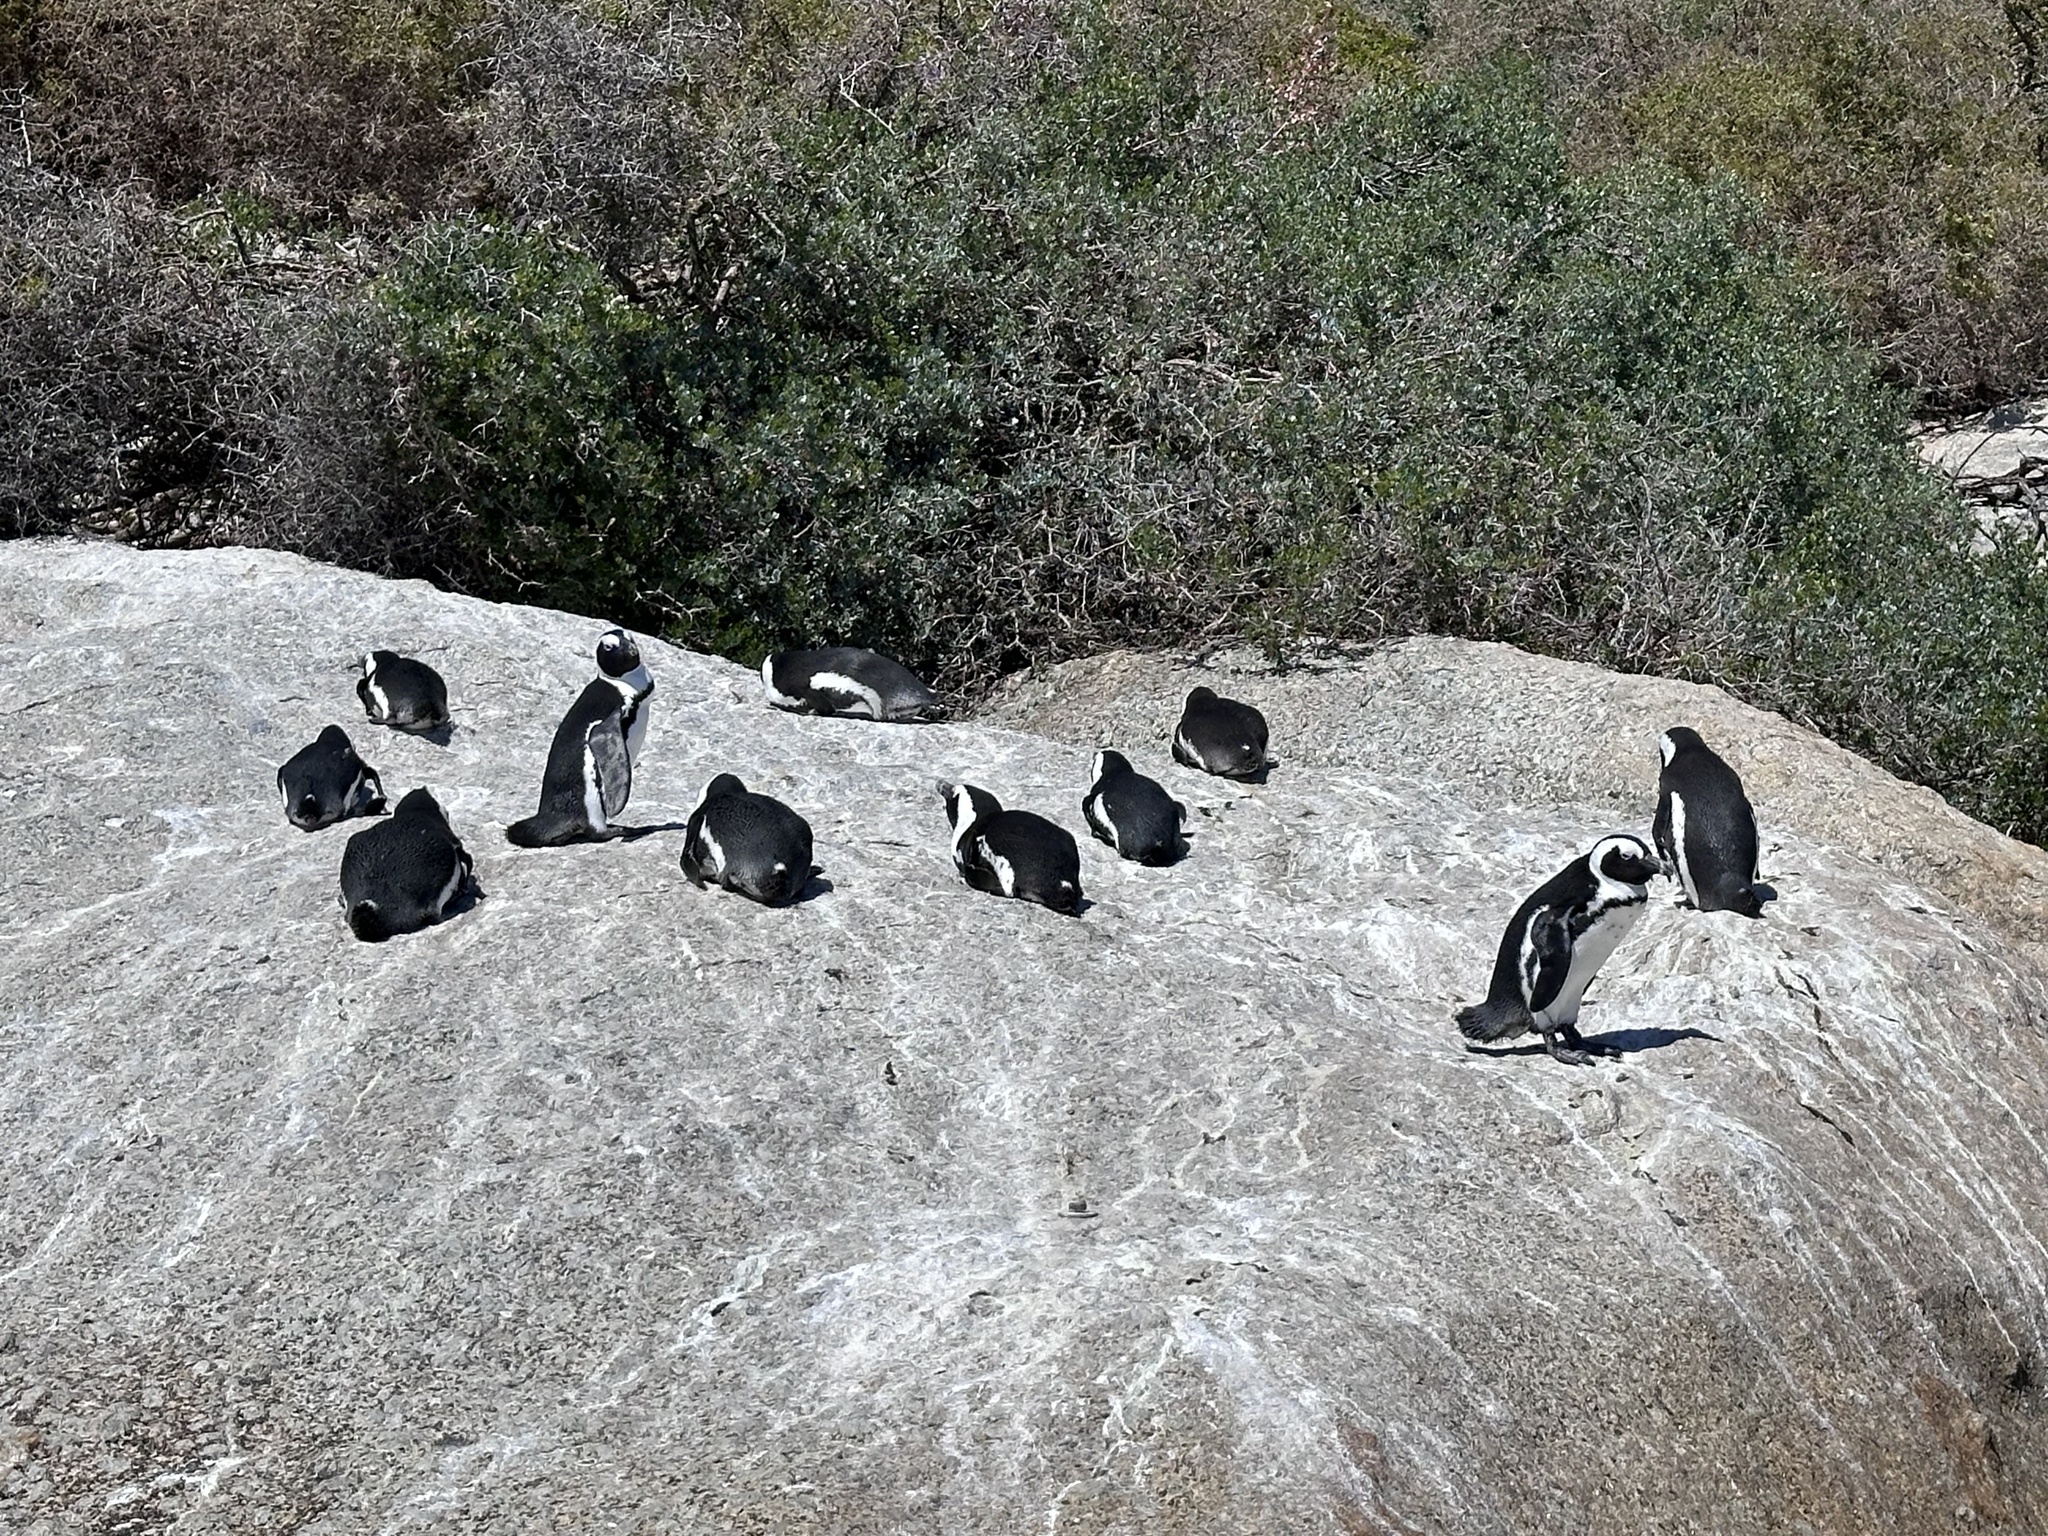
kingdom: Animalia
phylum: Chordata
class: Aves
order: Sphenisciformes
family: Spheniscidae
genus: Spheniscus
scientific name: Spheniscus demersus
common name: African penguin
